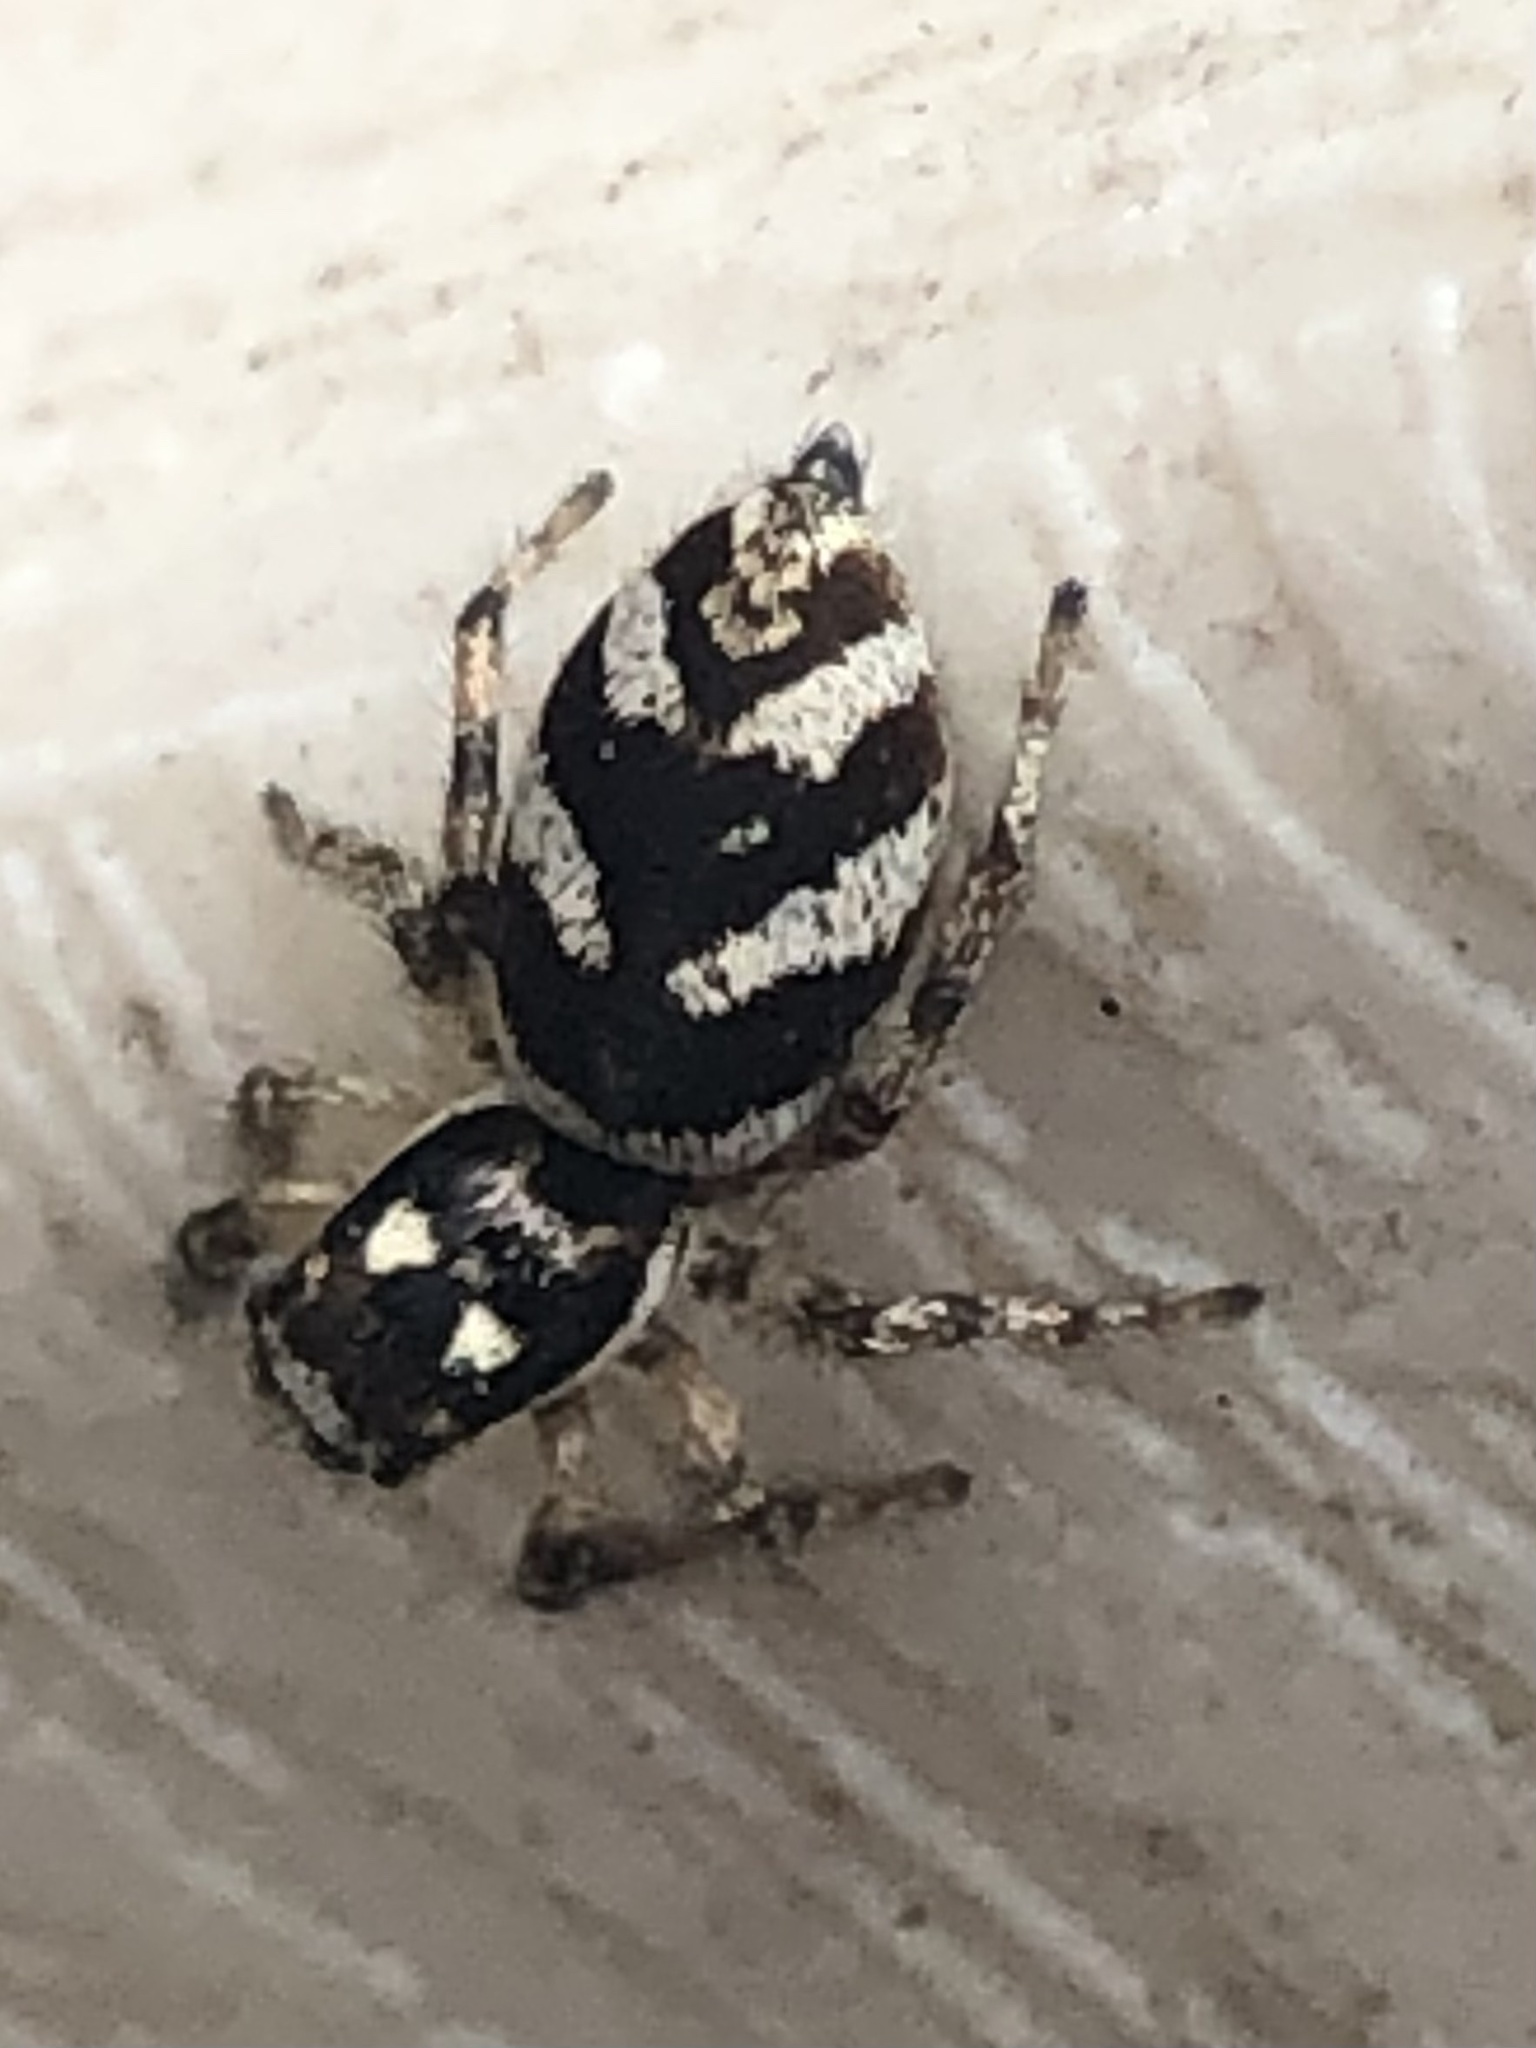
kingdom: Animalia
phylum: Arthropoda
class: Arachnida
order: Araneae
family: Salticidae
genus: Salticus
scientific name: Salticus scenicus
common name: Zebra jumper
